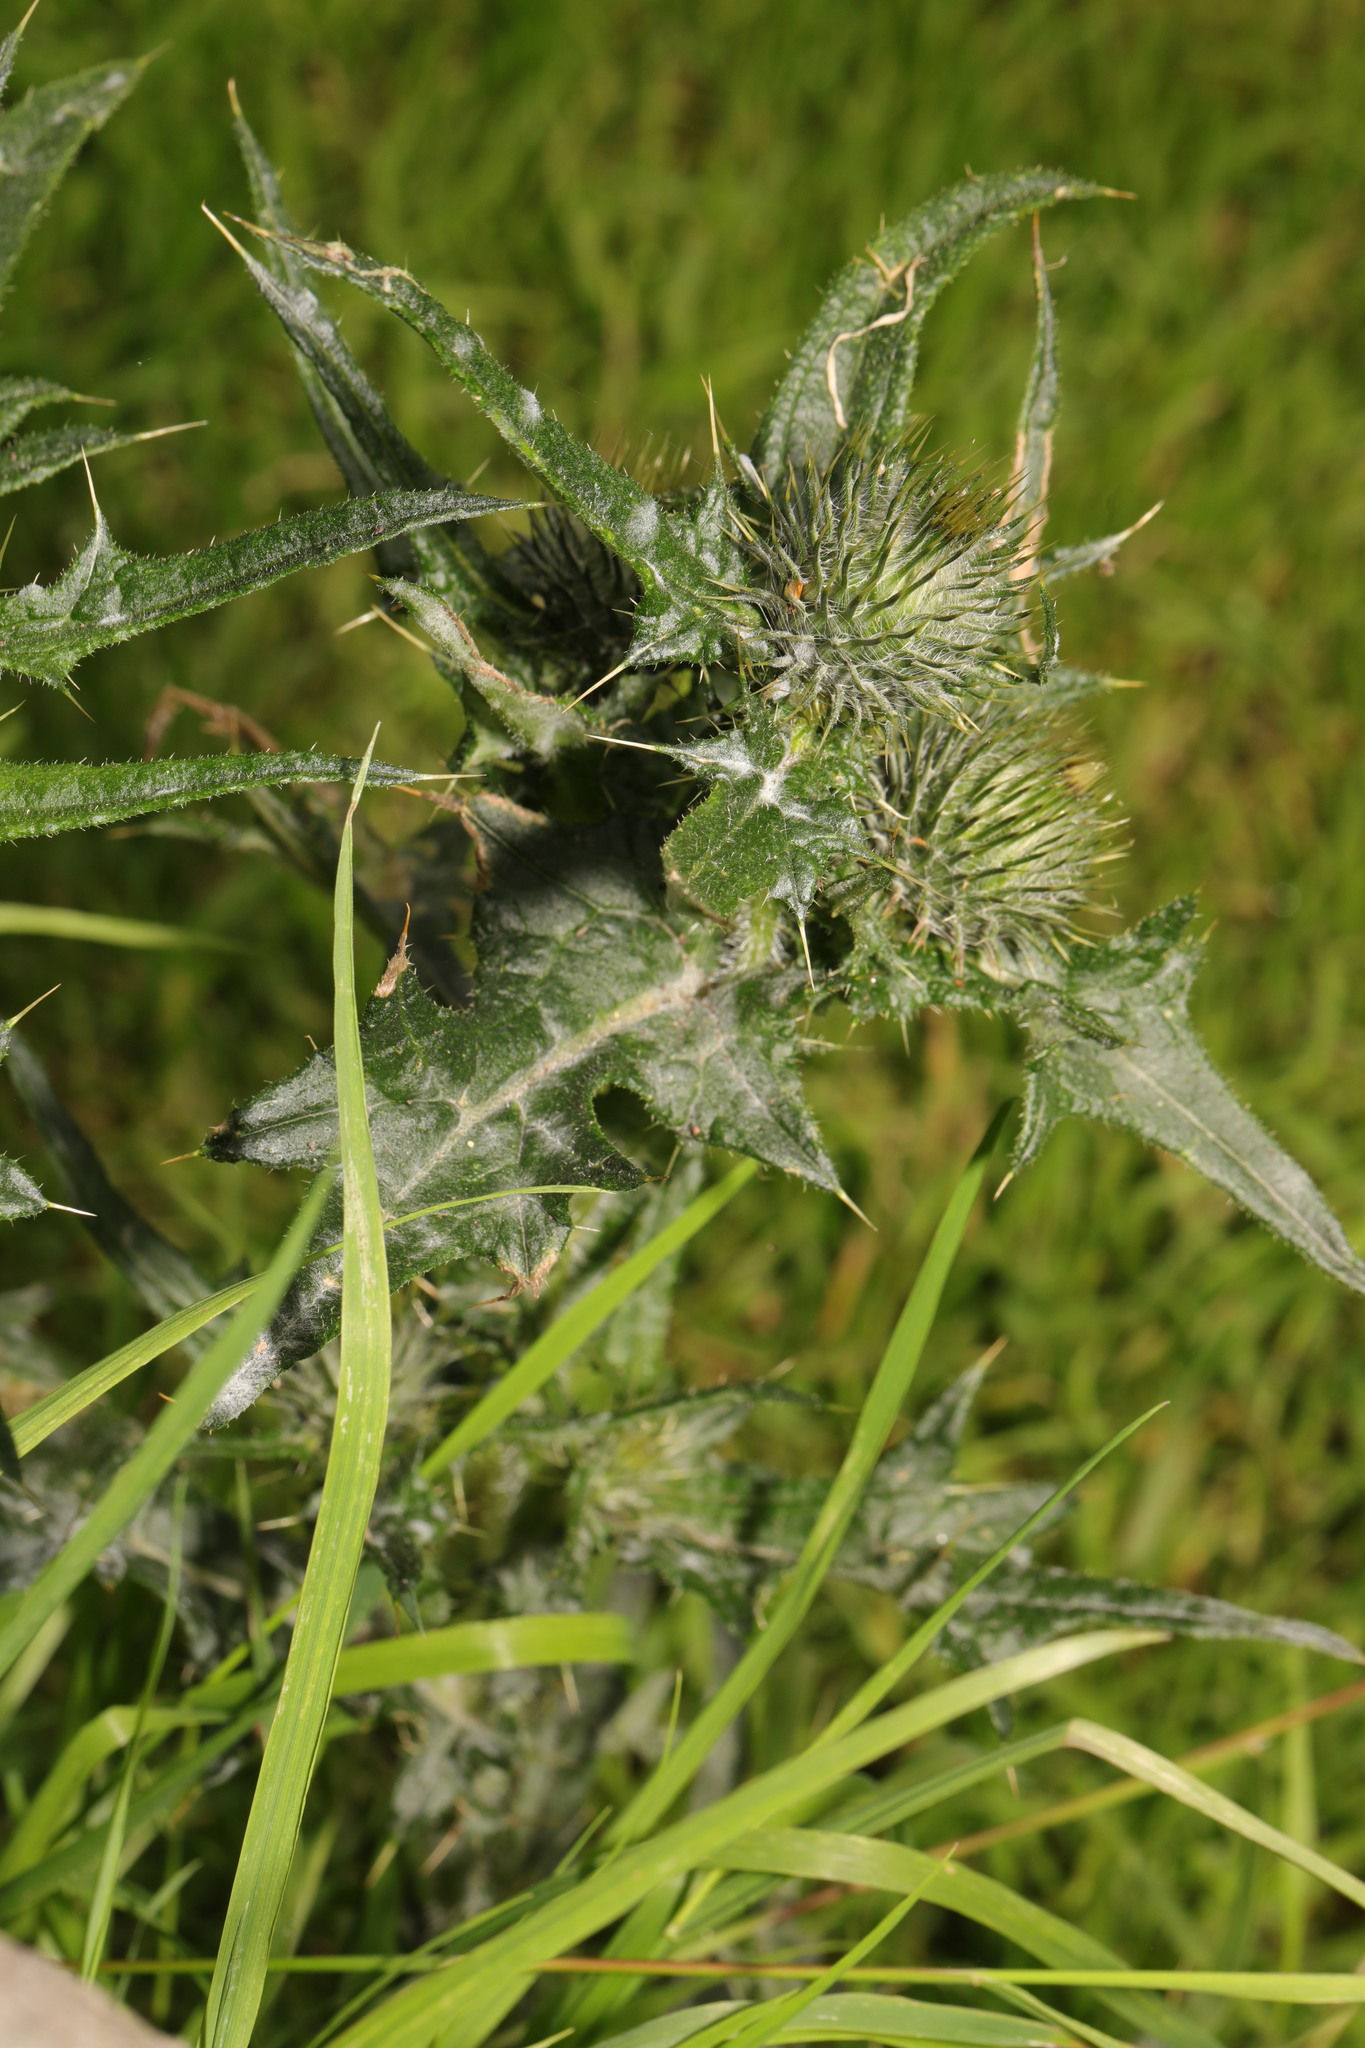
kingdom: Plantae
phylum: Tracheophyta
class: Magnoliopsida
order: Asterales
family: Asteraceae
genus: Cirsium
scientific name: Cirsium vulgare
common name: Bull thistle
